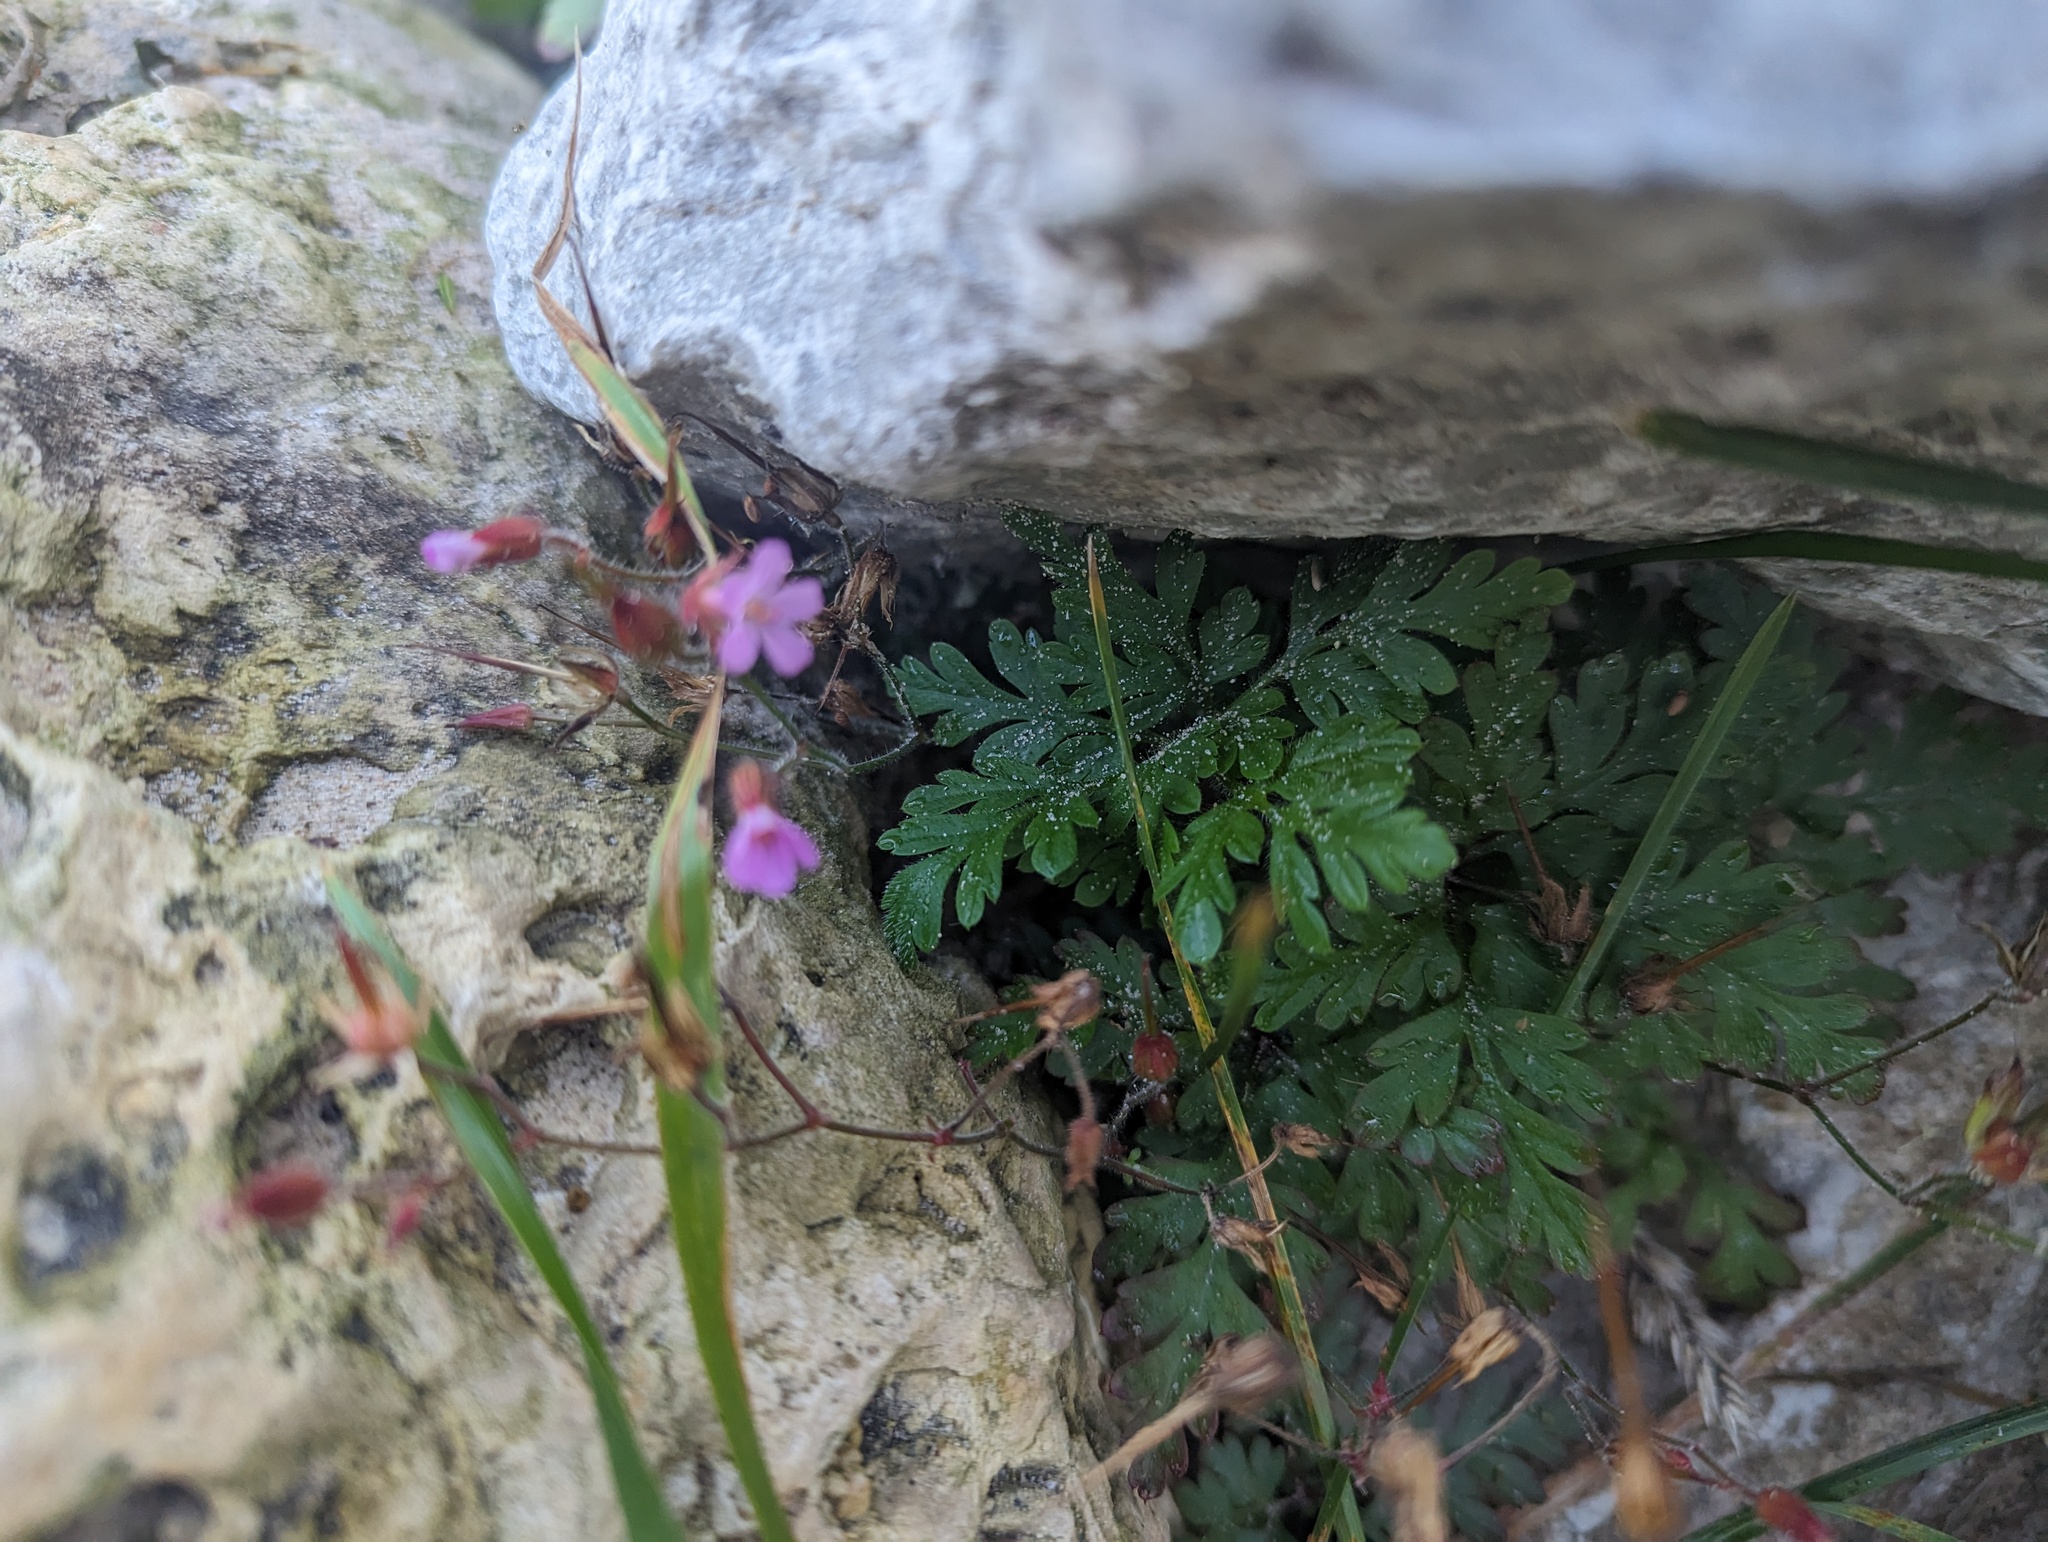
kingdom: Plantae
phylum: Tracheophyta
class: Magnoliopsida
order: Geraniales
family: Geraniaceae
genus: Geranium
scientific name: Geranium robertianum
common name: Herb-robert
